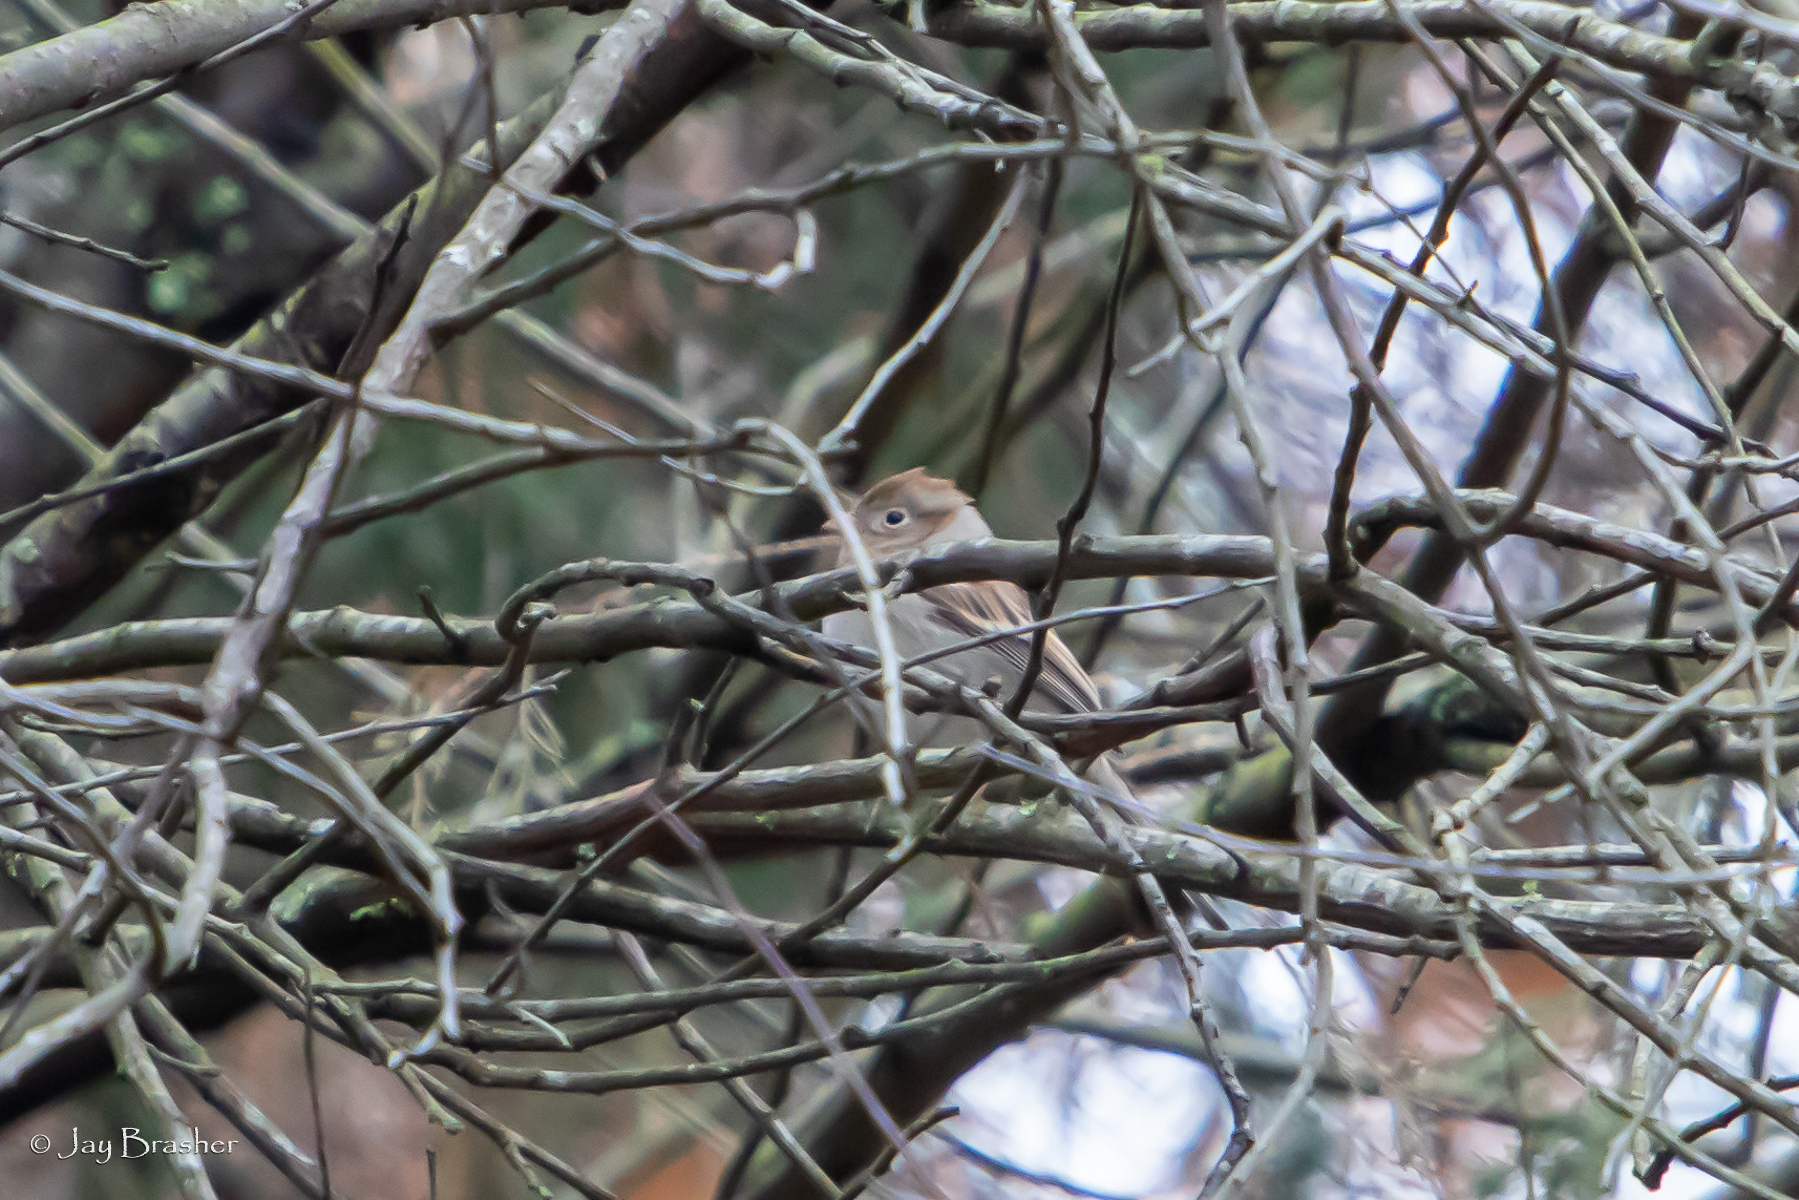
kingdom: Animalia
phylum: Chordata
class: Aves
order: Passeriformes
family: Passerellidae
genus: Spizella
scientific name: Spizella pusilla
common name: Field sparrow
